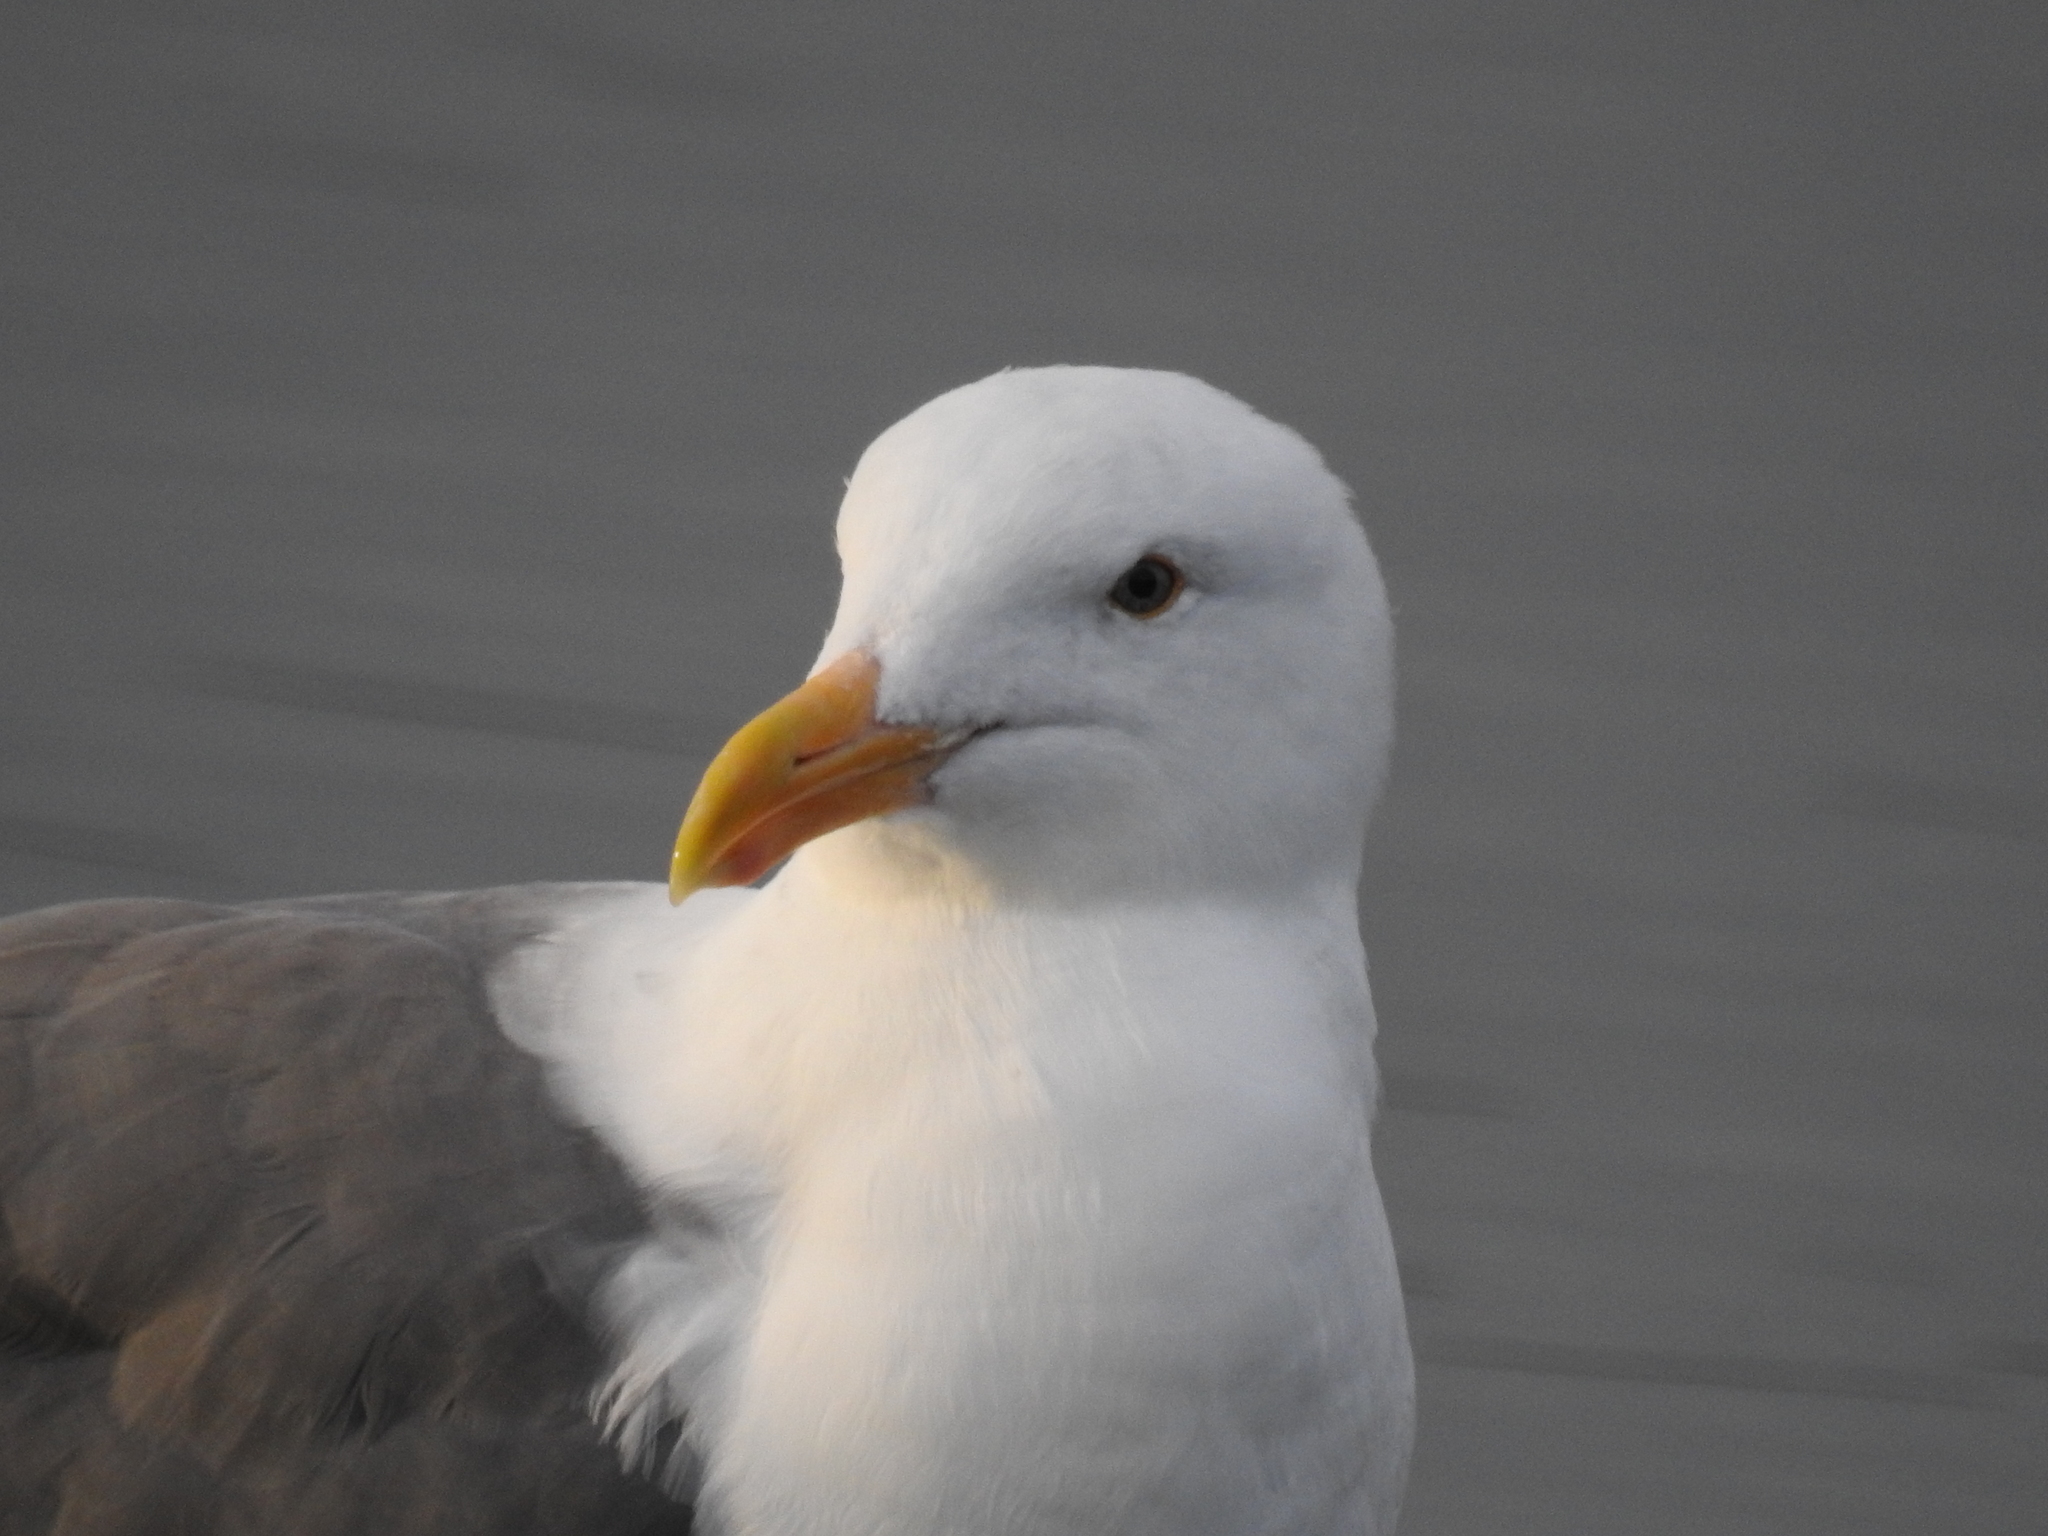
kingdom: Animalia
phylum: Chordata
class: Aves
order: Charadriiformes
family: Laridae
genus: Larus
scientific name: Larus occidentalis
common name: Western gull
